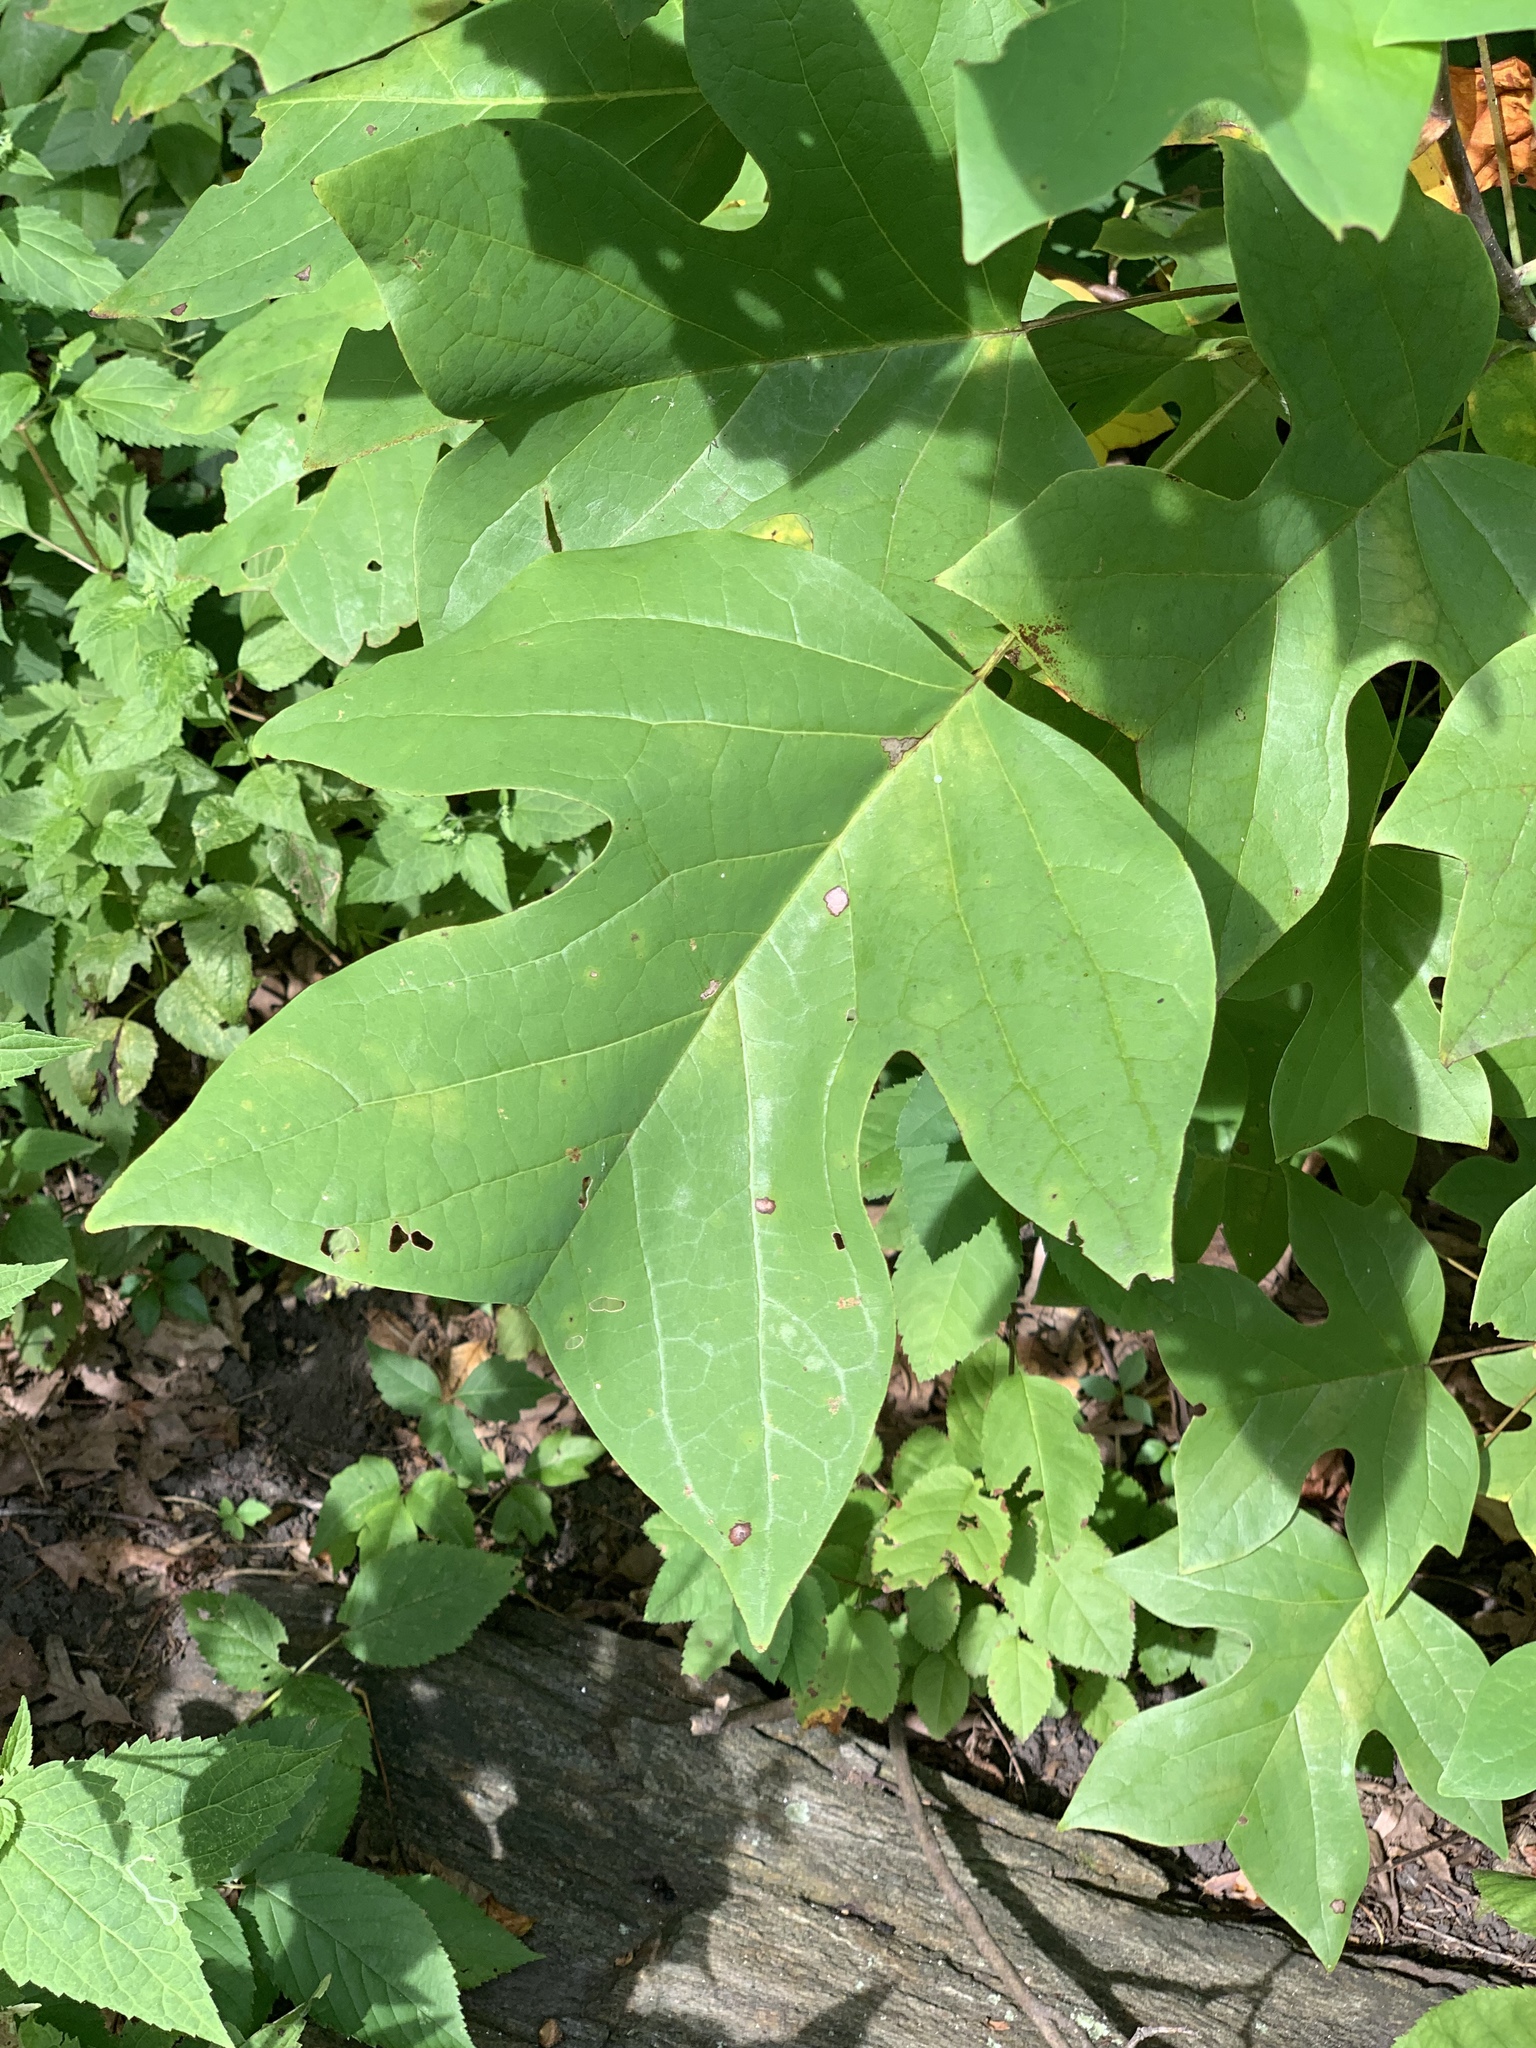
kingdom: Plantae
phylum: Tracheophyta
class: Magnoliopsida
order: Magnoliales
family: Magnoliaceae
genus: Liriodendron
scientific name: Liriodendron tulipifera
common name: Tulip tree
